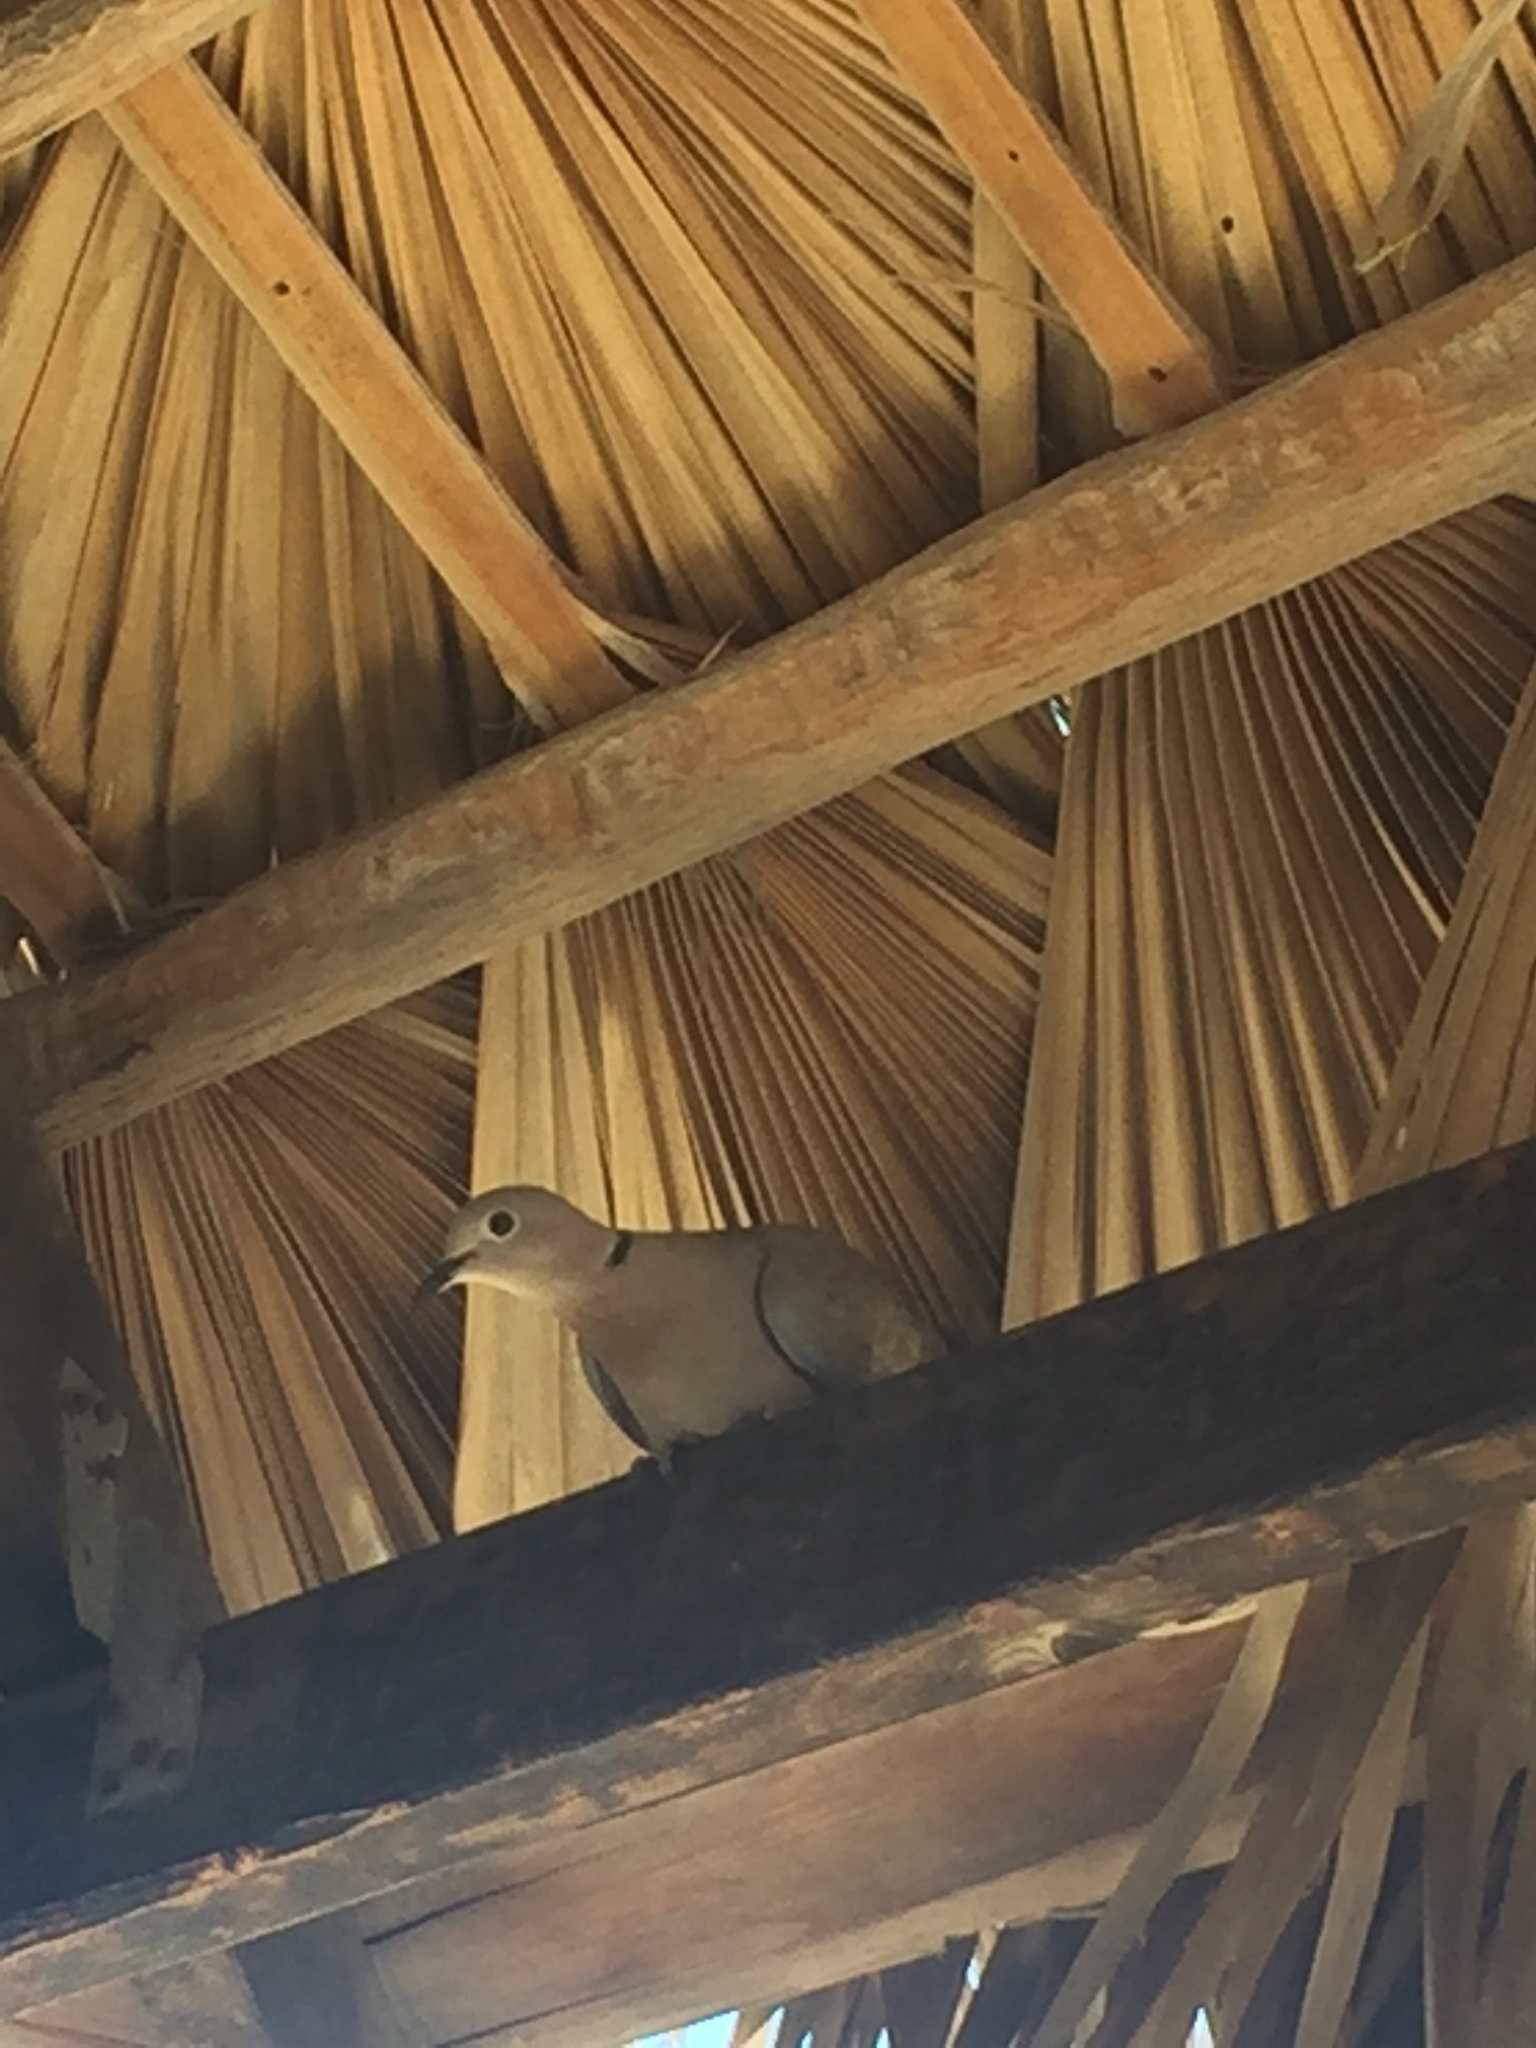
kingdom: Animalia
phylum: Chordata
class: Aves
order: Columbiformes
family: Columbidae
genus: Streptopelia
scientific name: Streptopelia decaocto
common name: Eurasian collared dove
